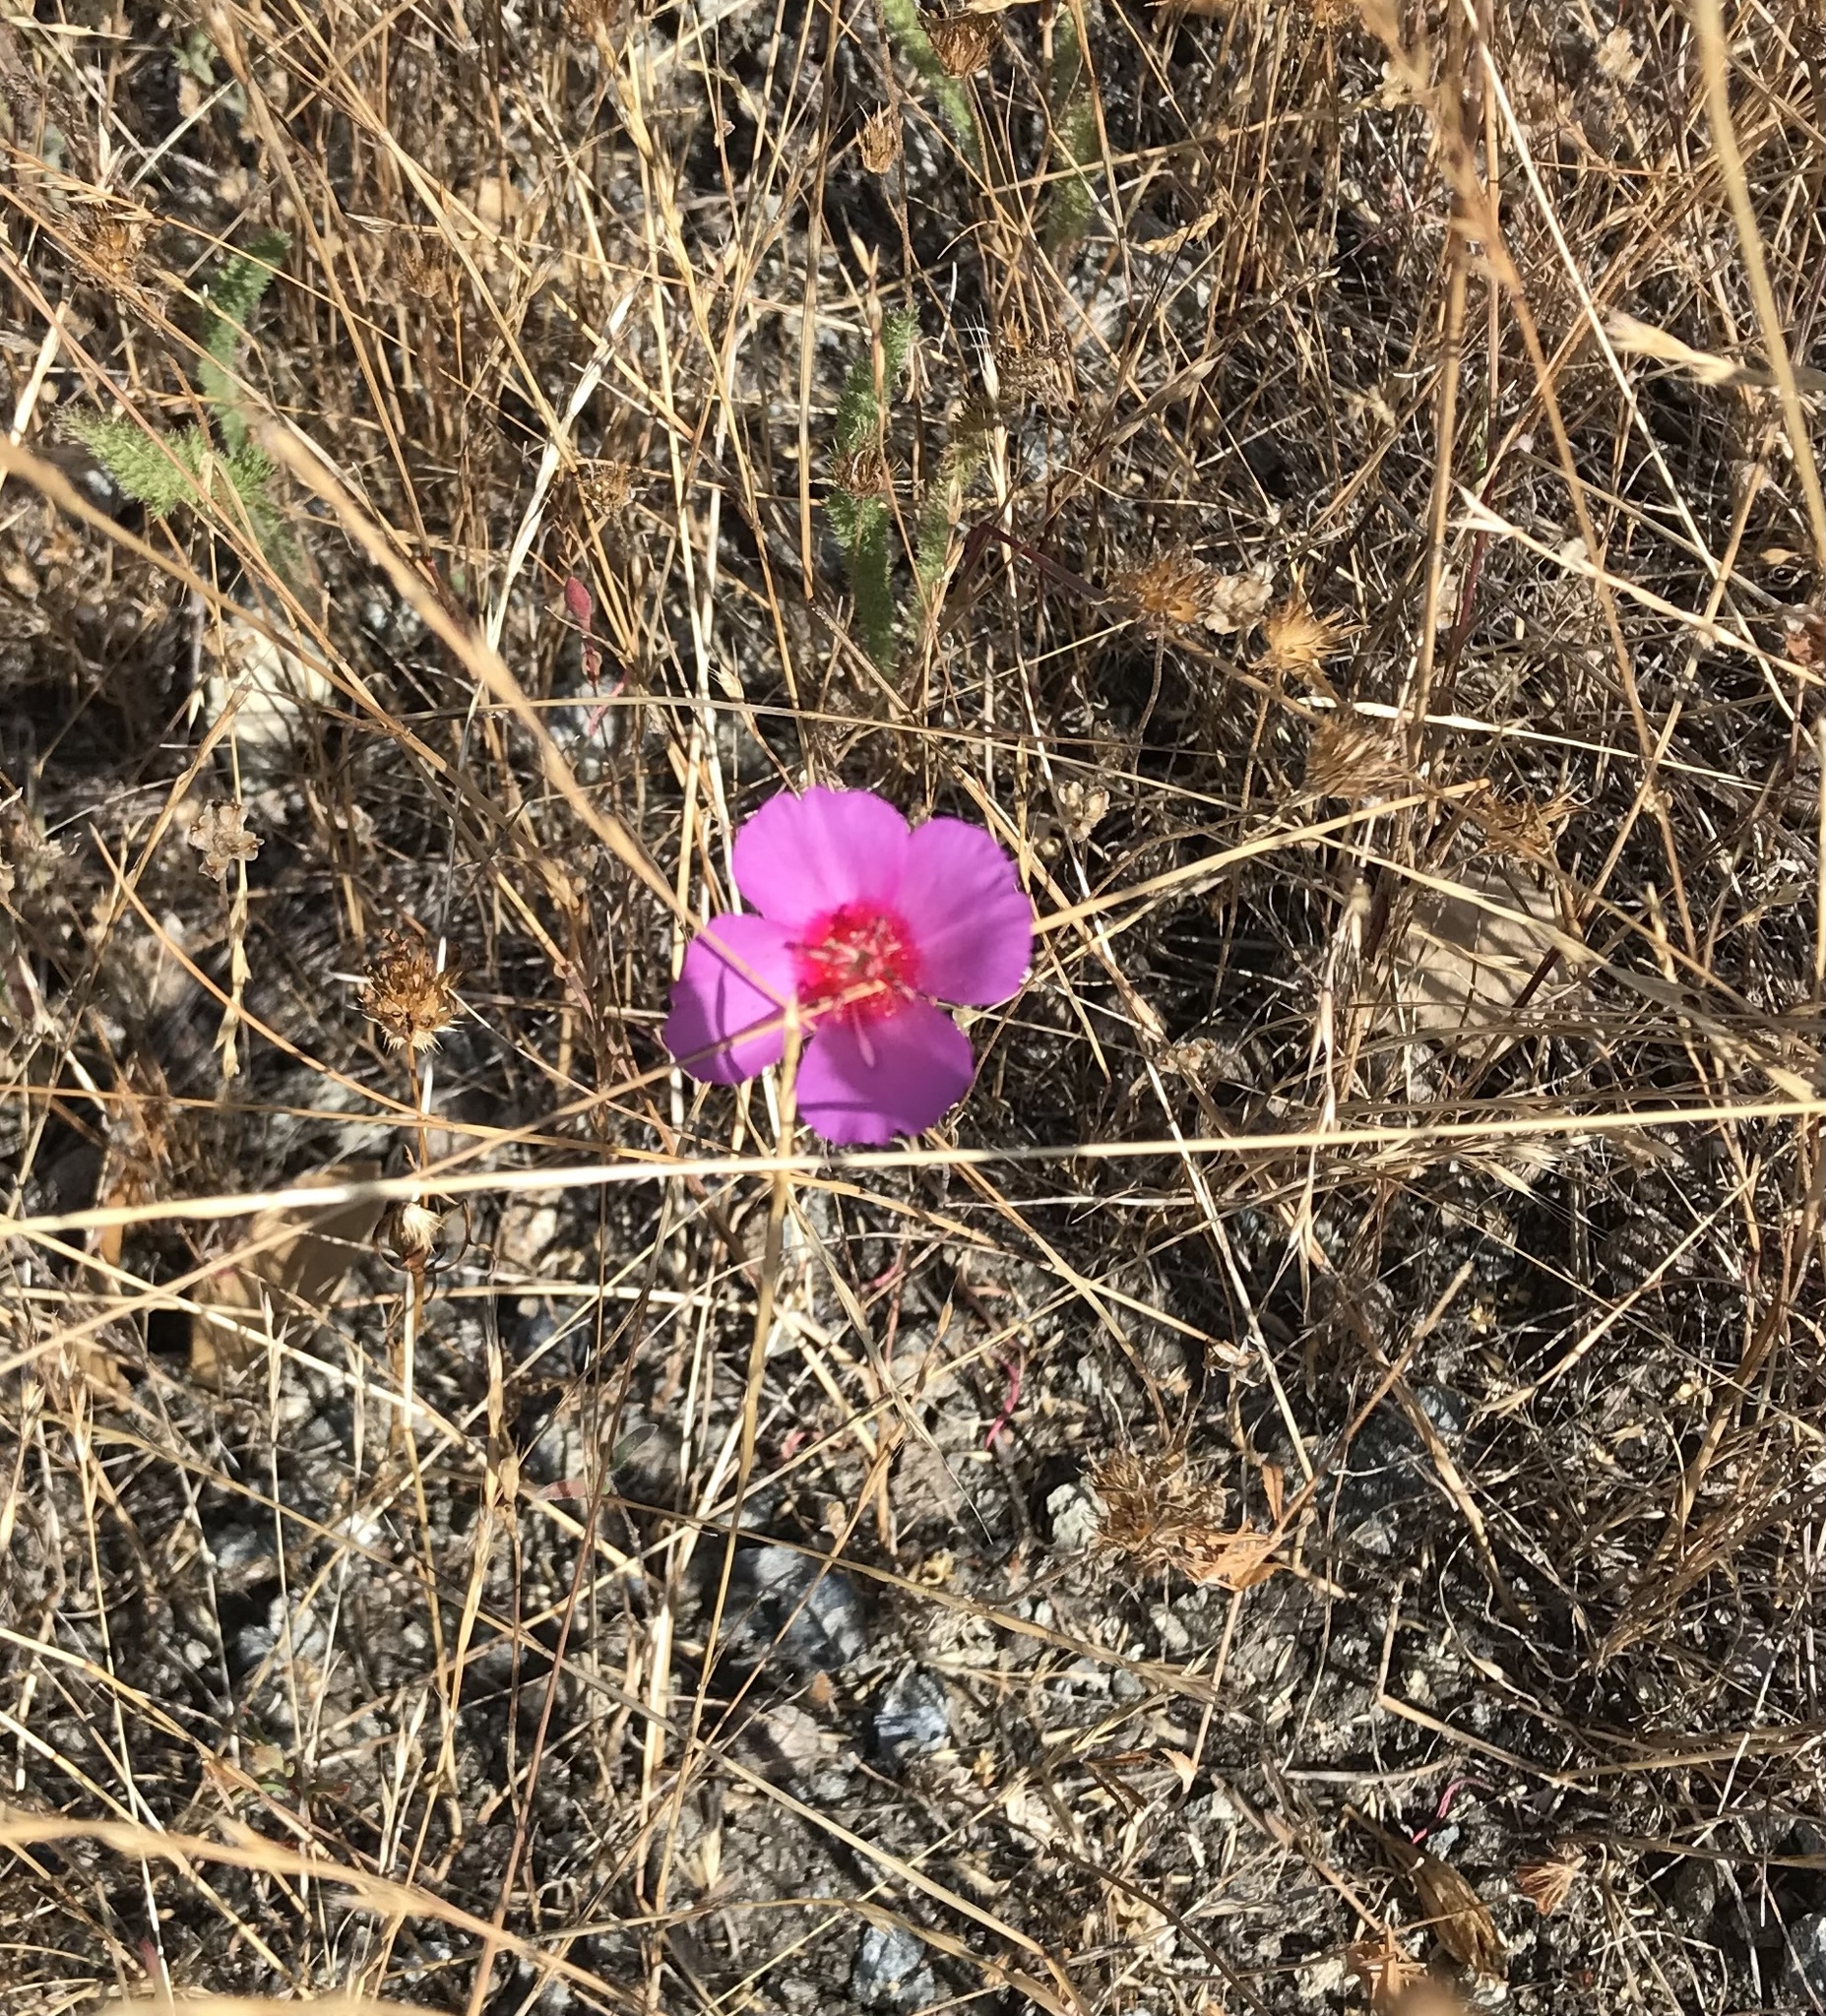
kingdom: Plantae
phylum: Tracheophyta
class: Magnoliopsida
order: Myrtales
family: Onagraceae
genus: Clarkia
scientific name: Clarkia rubicunda
